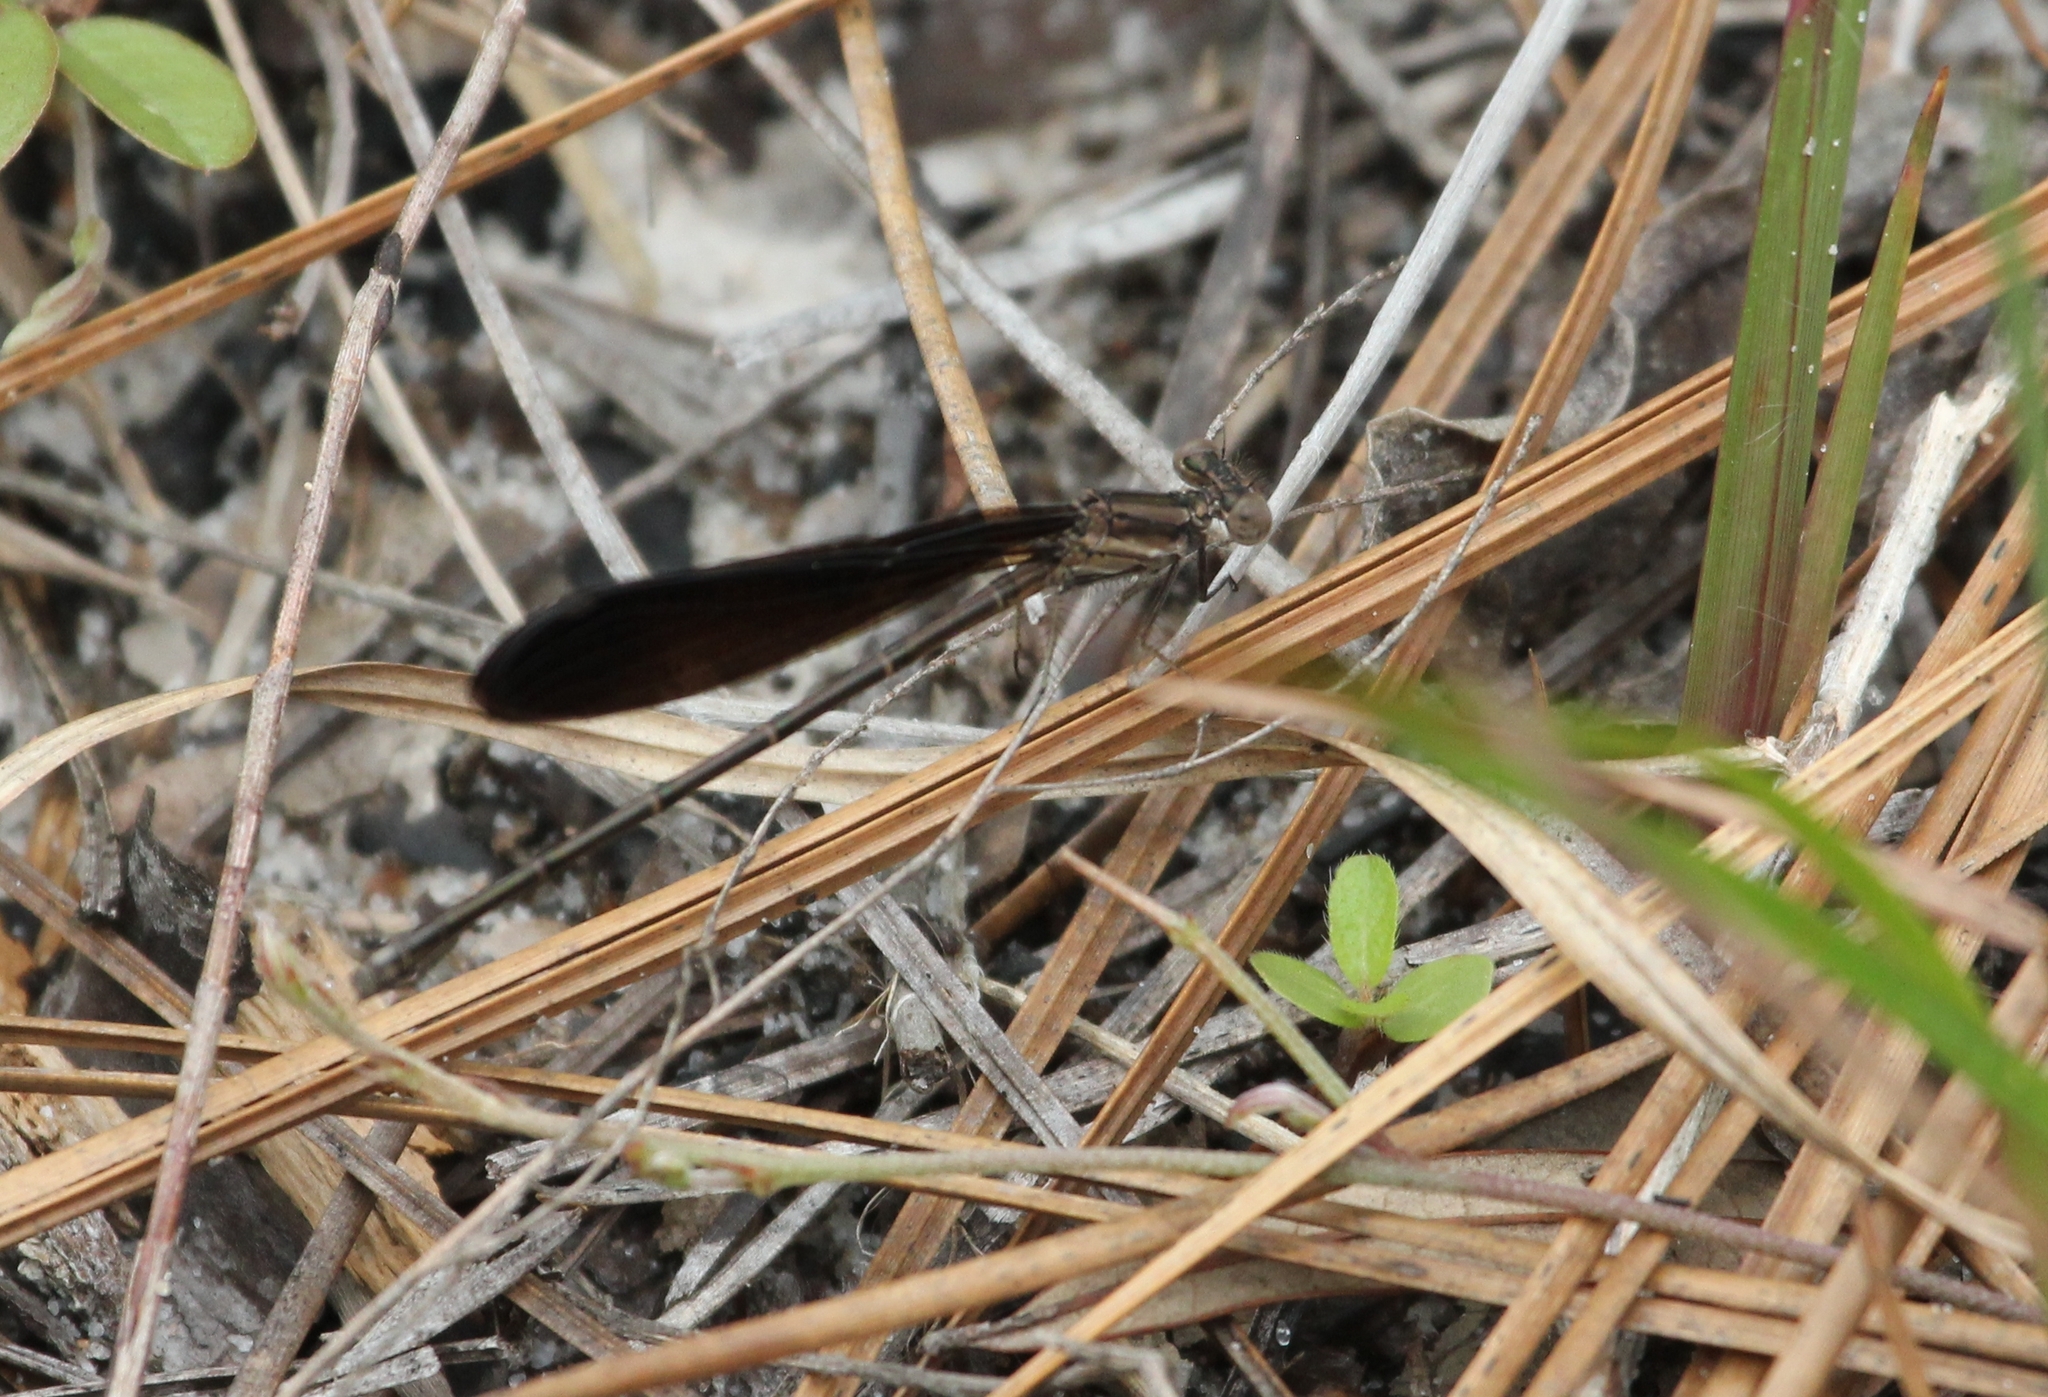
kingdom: Animalia
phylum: Arthropoda
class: Insecta
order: Odonata
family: Coenagrionidae
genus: Argia
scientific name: Argia fumipennis
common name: Variable dancer
